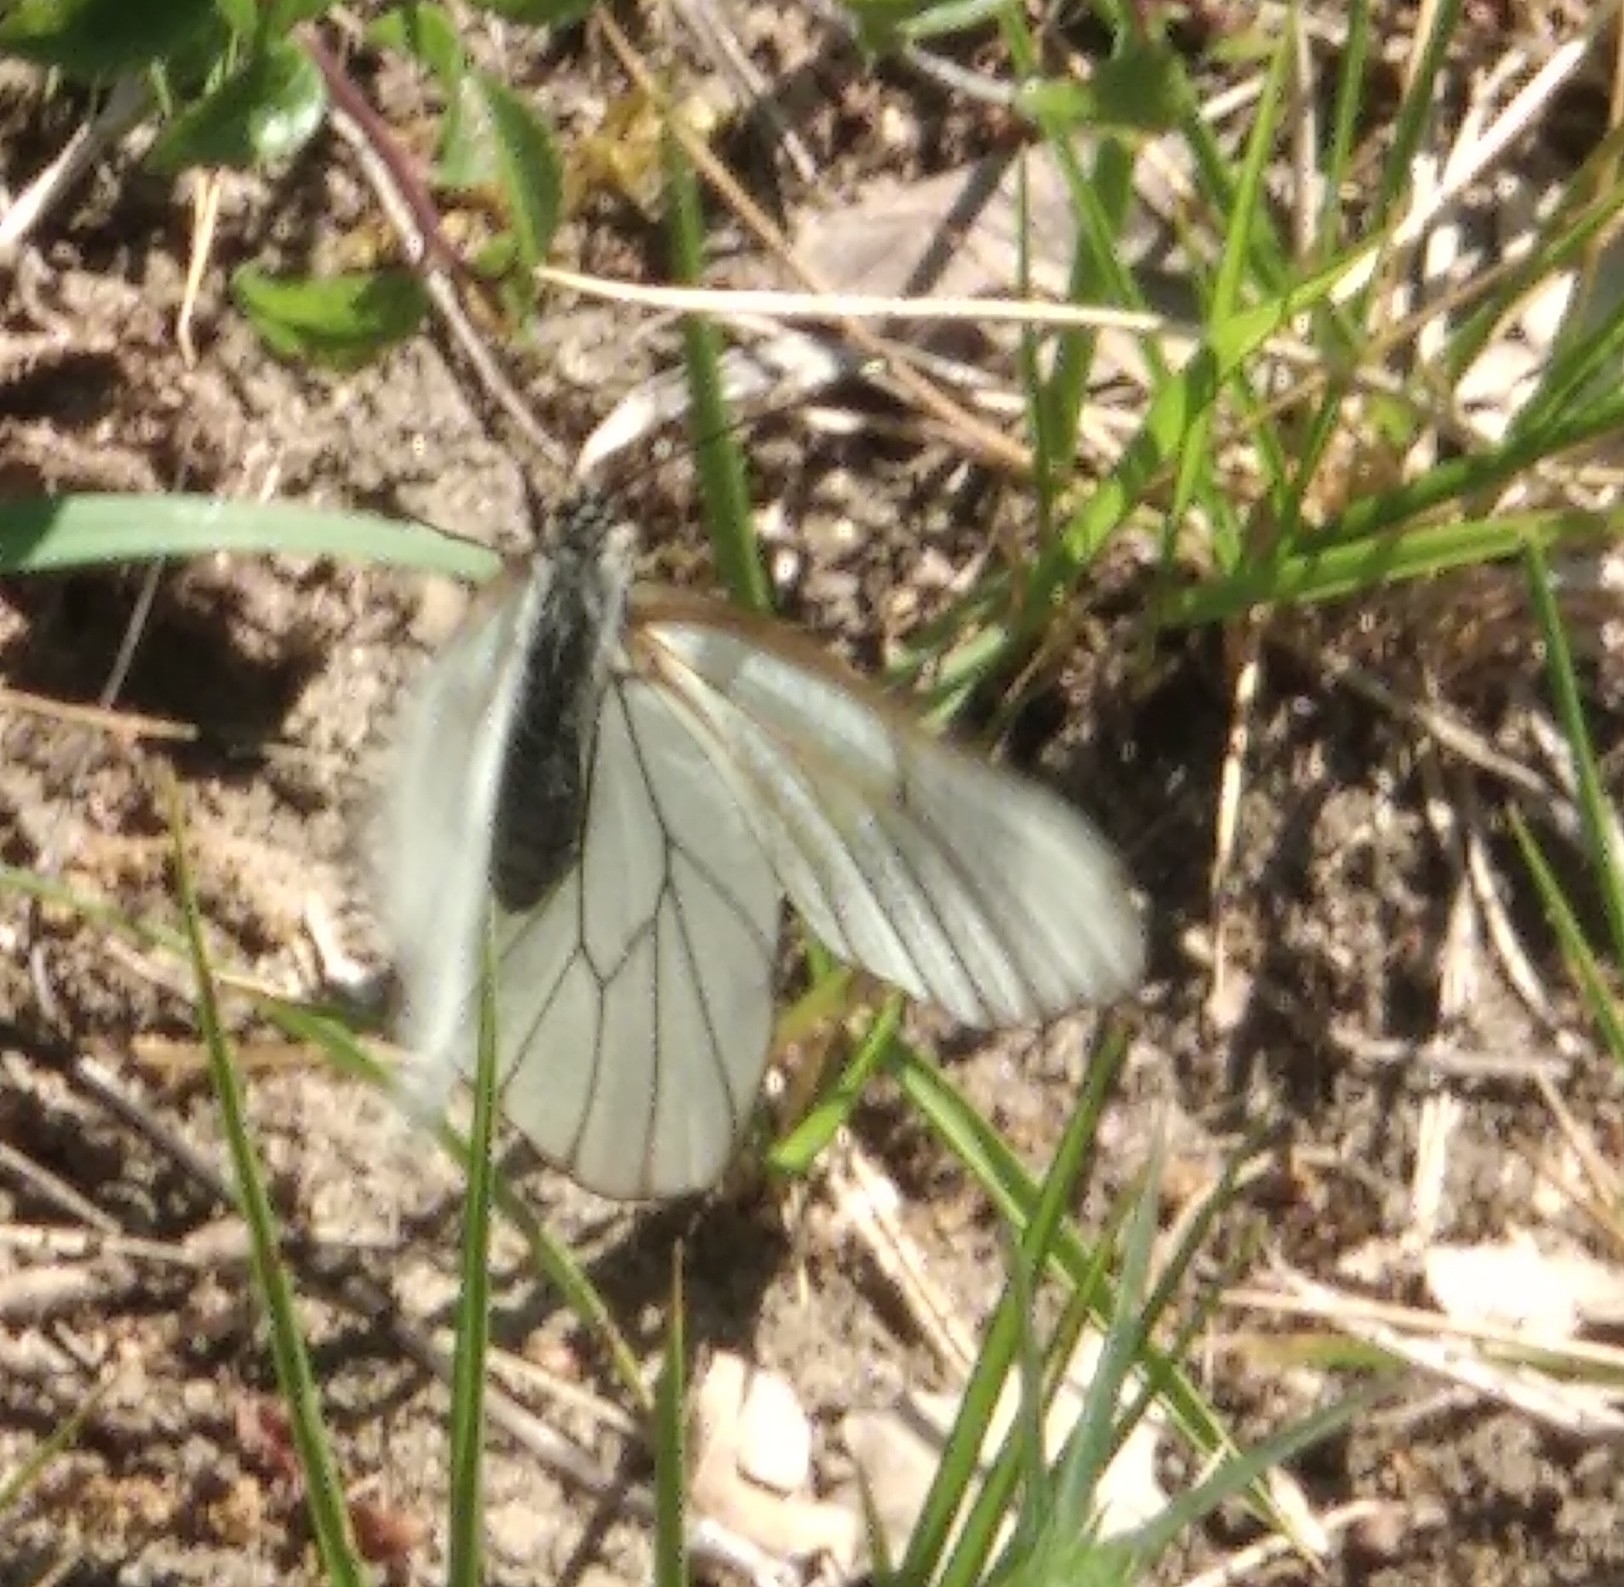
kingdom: Animalia
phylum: Arthropoda
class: Insecta
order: Lepidoptera
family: Pieridae
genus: Aporia
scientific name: Aporia crataegi
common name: Black-veined white
